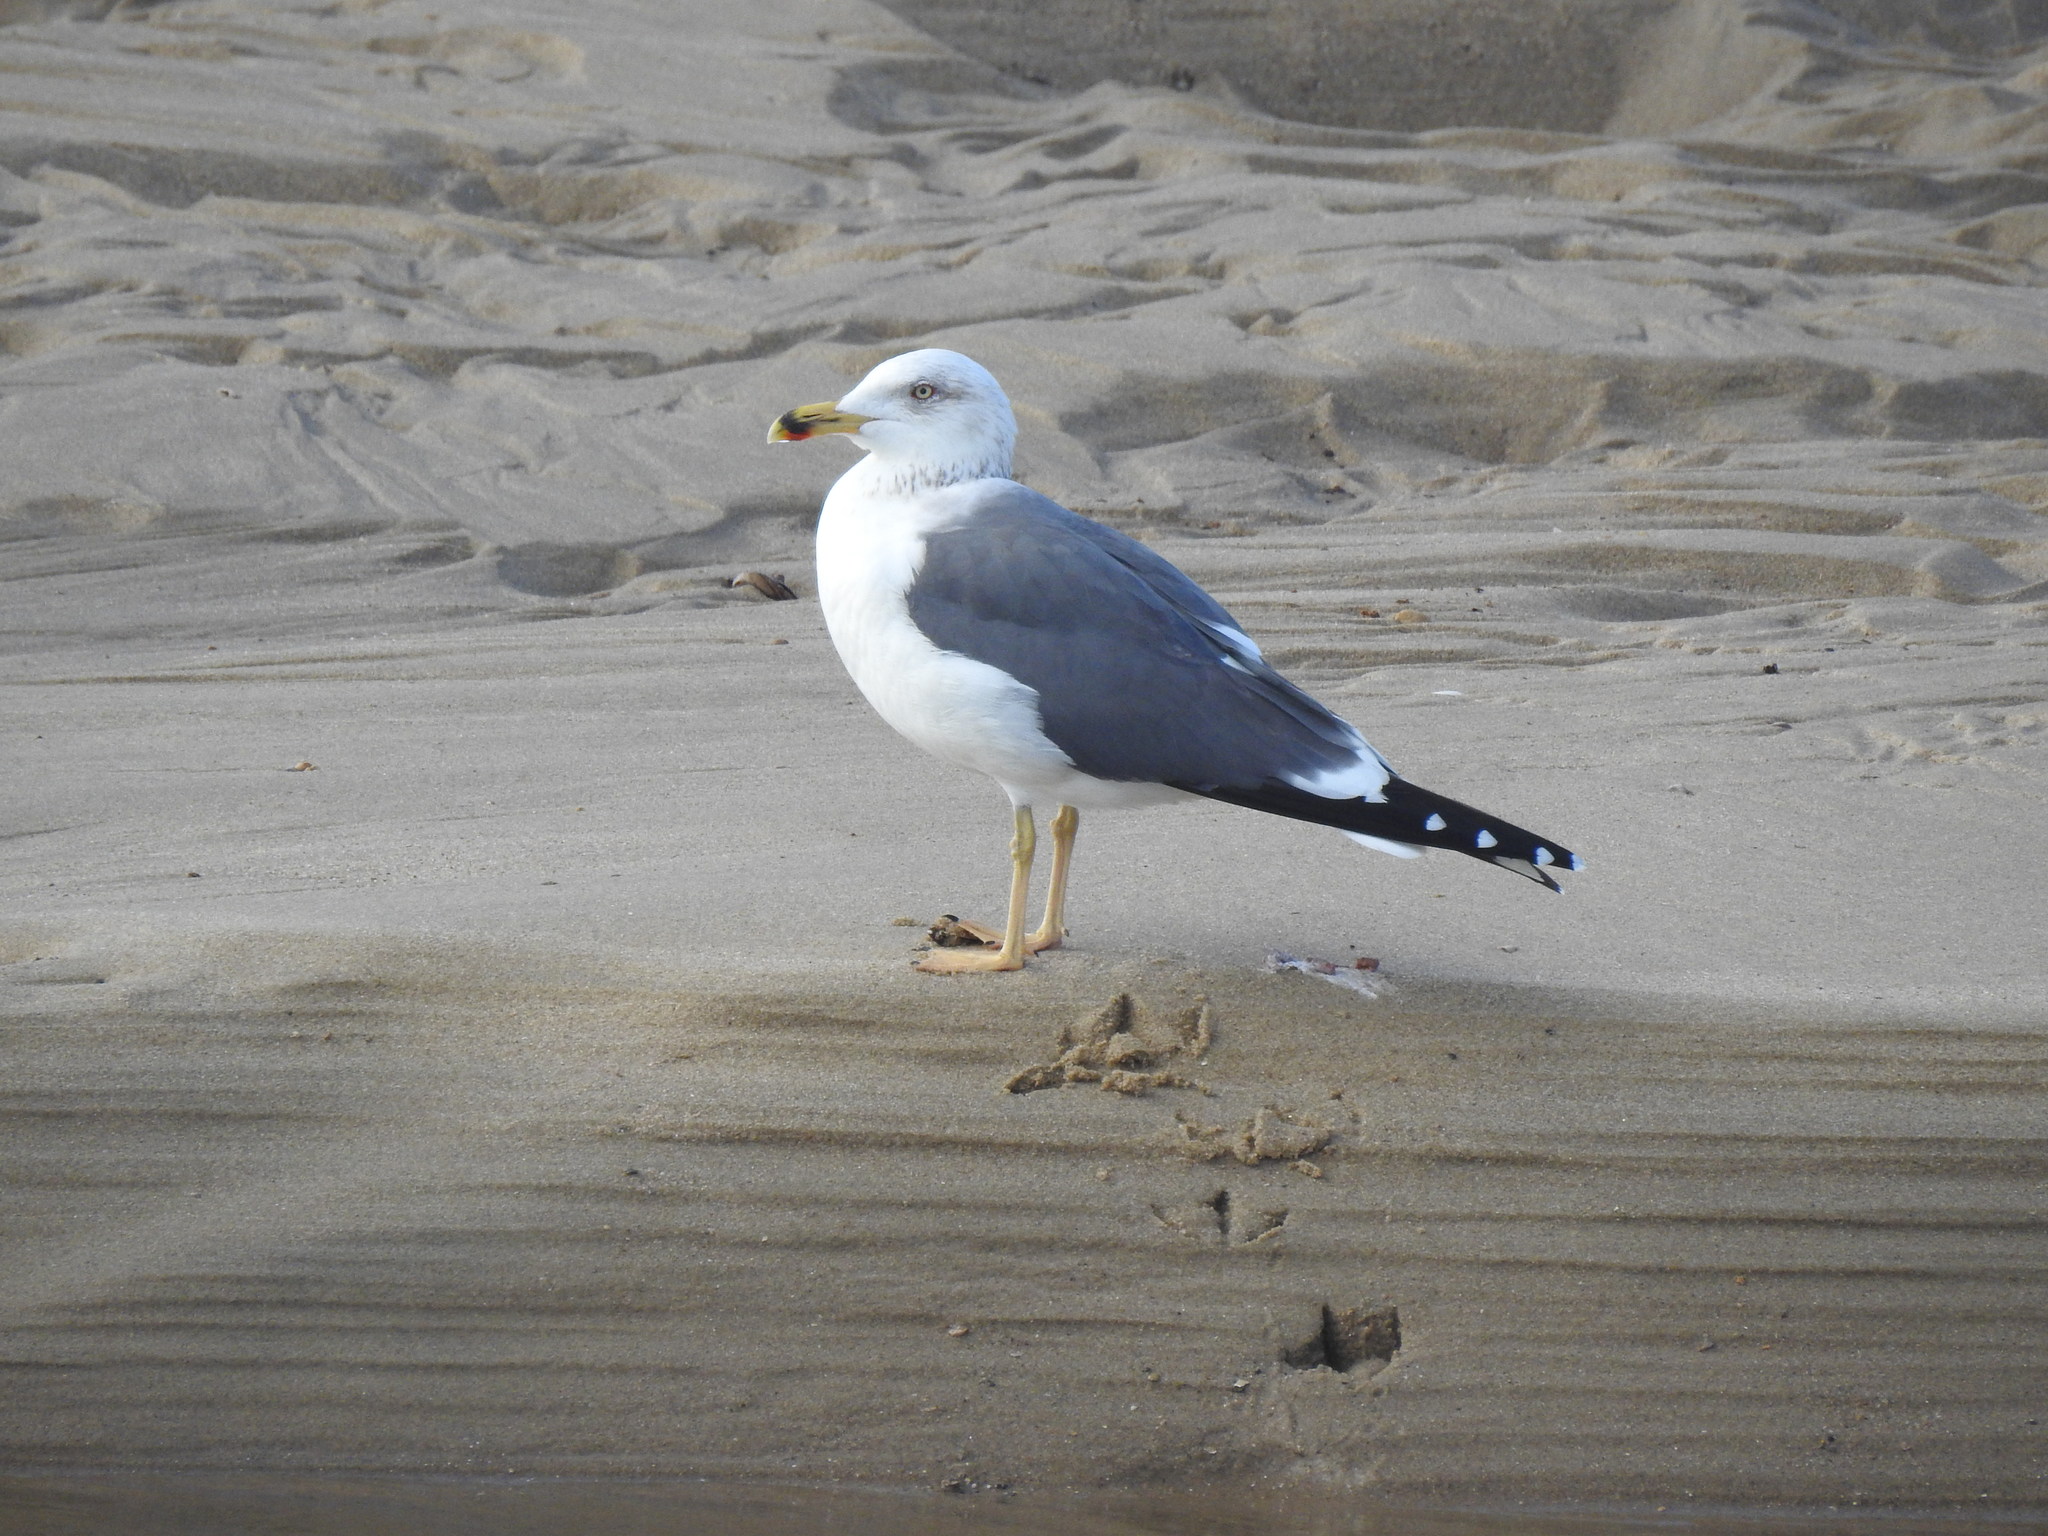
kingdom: Animalia
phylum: Chordata
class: Aves
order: Charadriiformes
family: Laridae
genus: Larus
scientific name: Larus michahellis
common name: Yellow-legged gull
